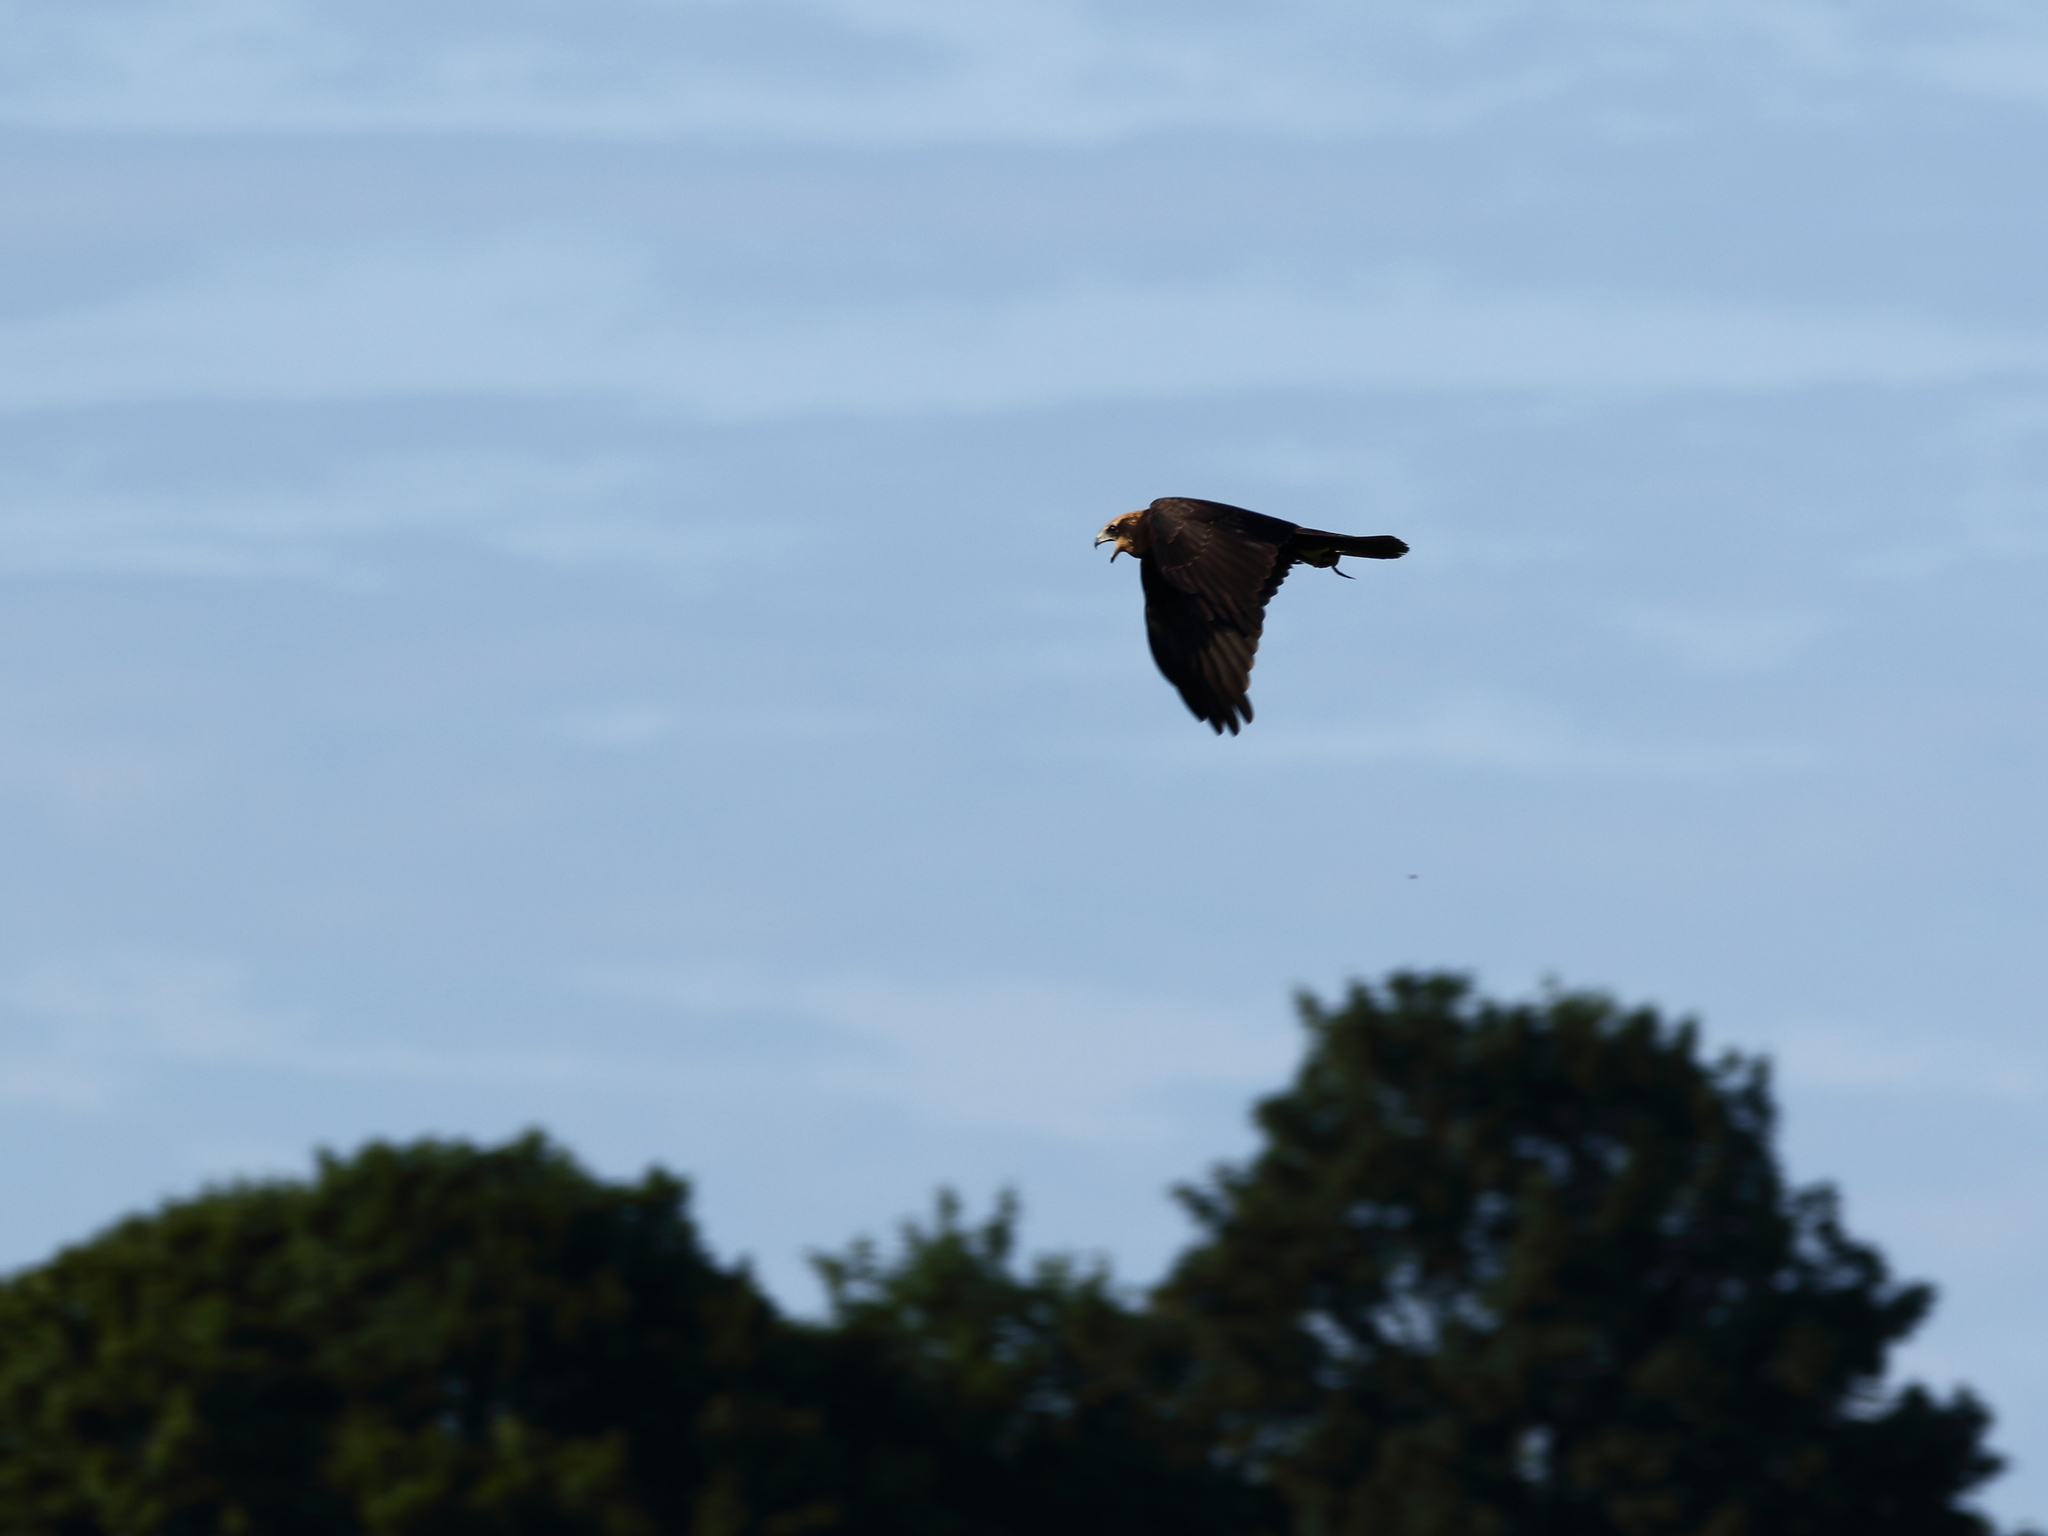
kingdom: Animalia
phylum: Chordata
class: Aves
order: Accipitriformes
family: Accipitridae
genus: Circus
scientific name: Circus aeruginosus
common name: Western marsh harrier
